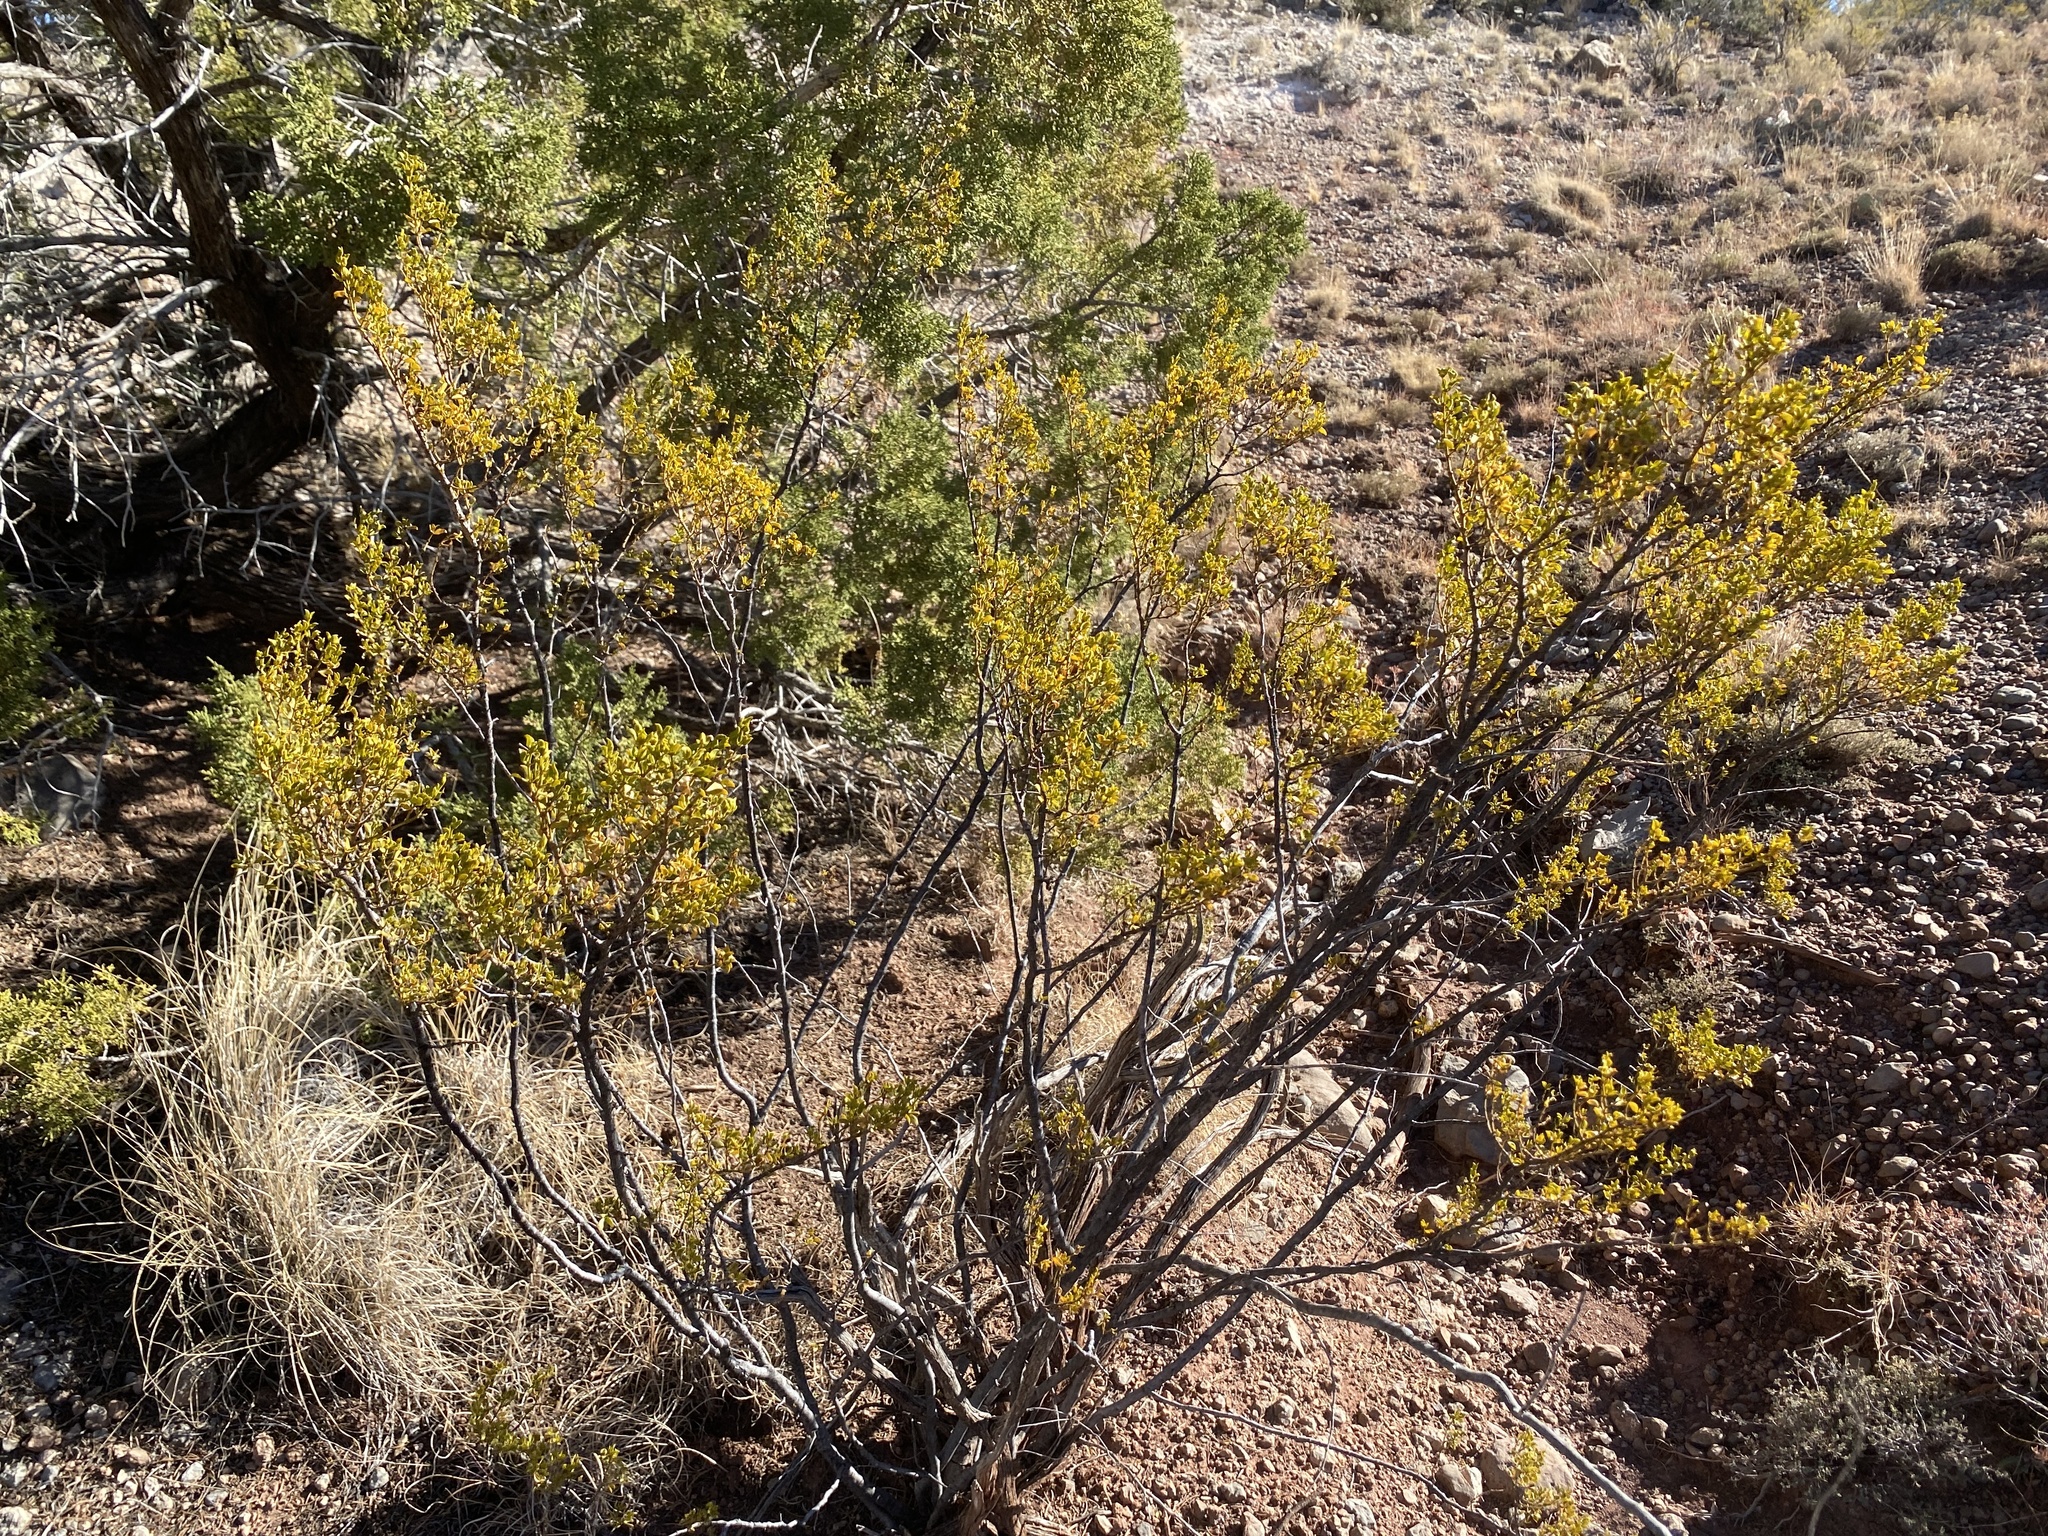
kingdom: Plantae
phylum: Tracheophyta
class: Magnoliopsida
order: Zygophyllales
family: Zygophyllaceae
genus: Larrea
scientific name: Larrea tridentata
